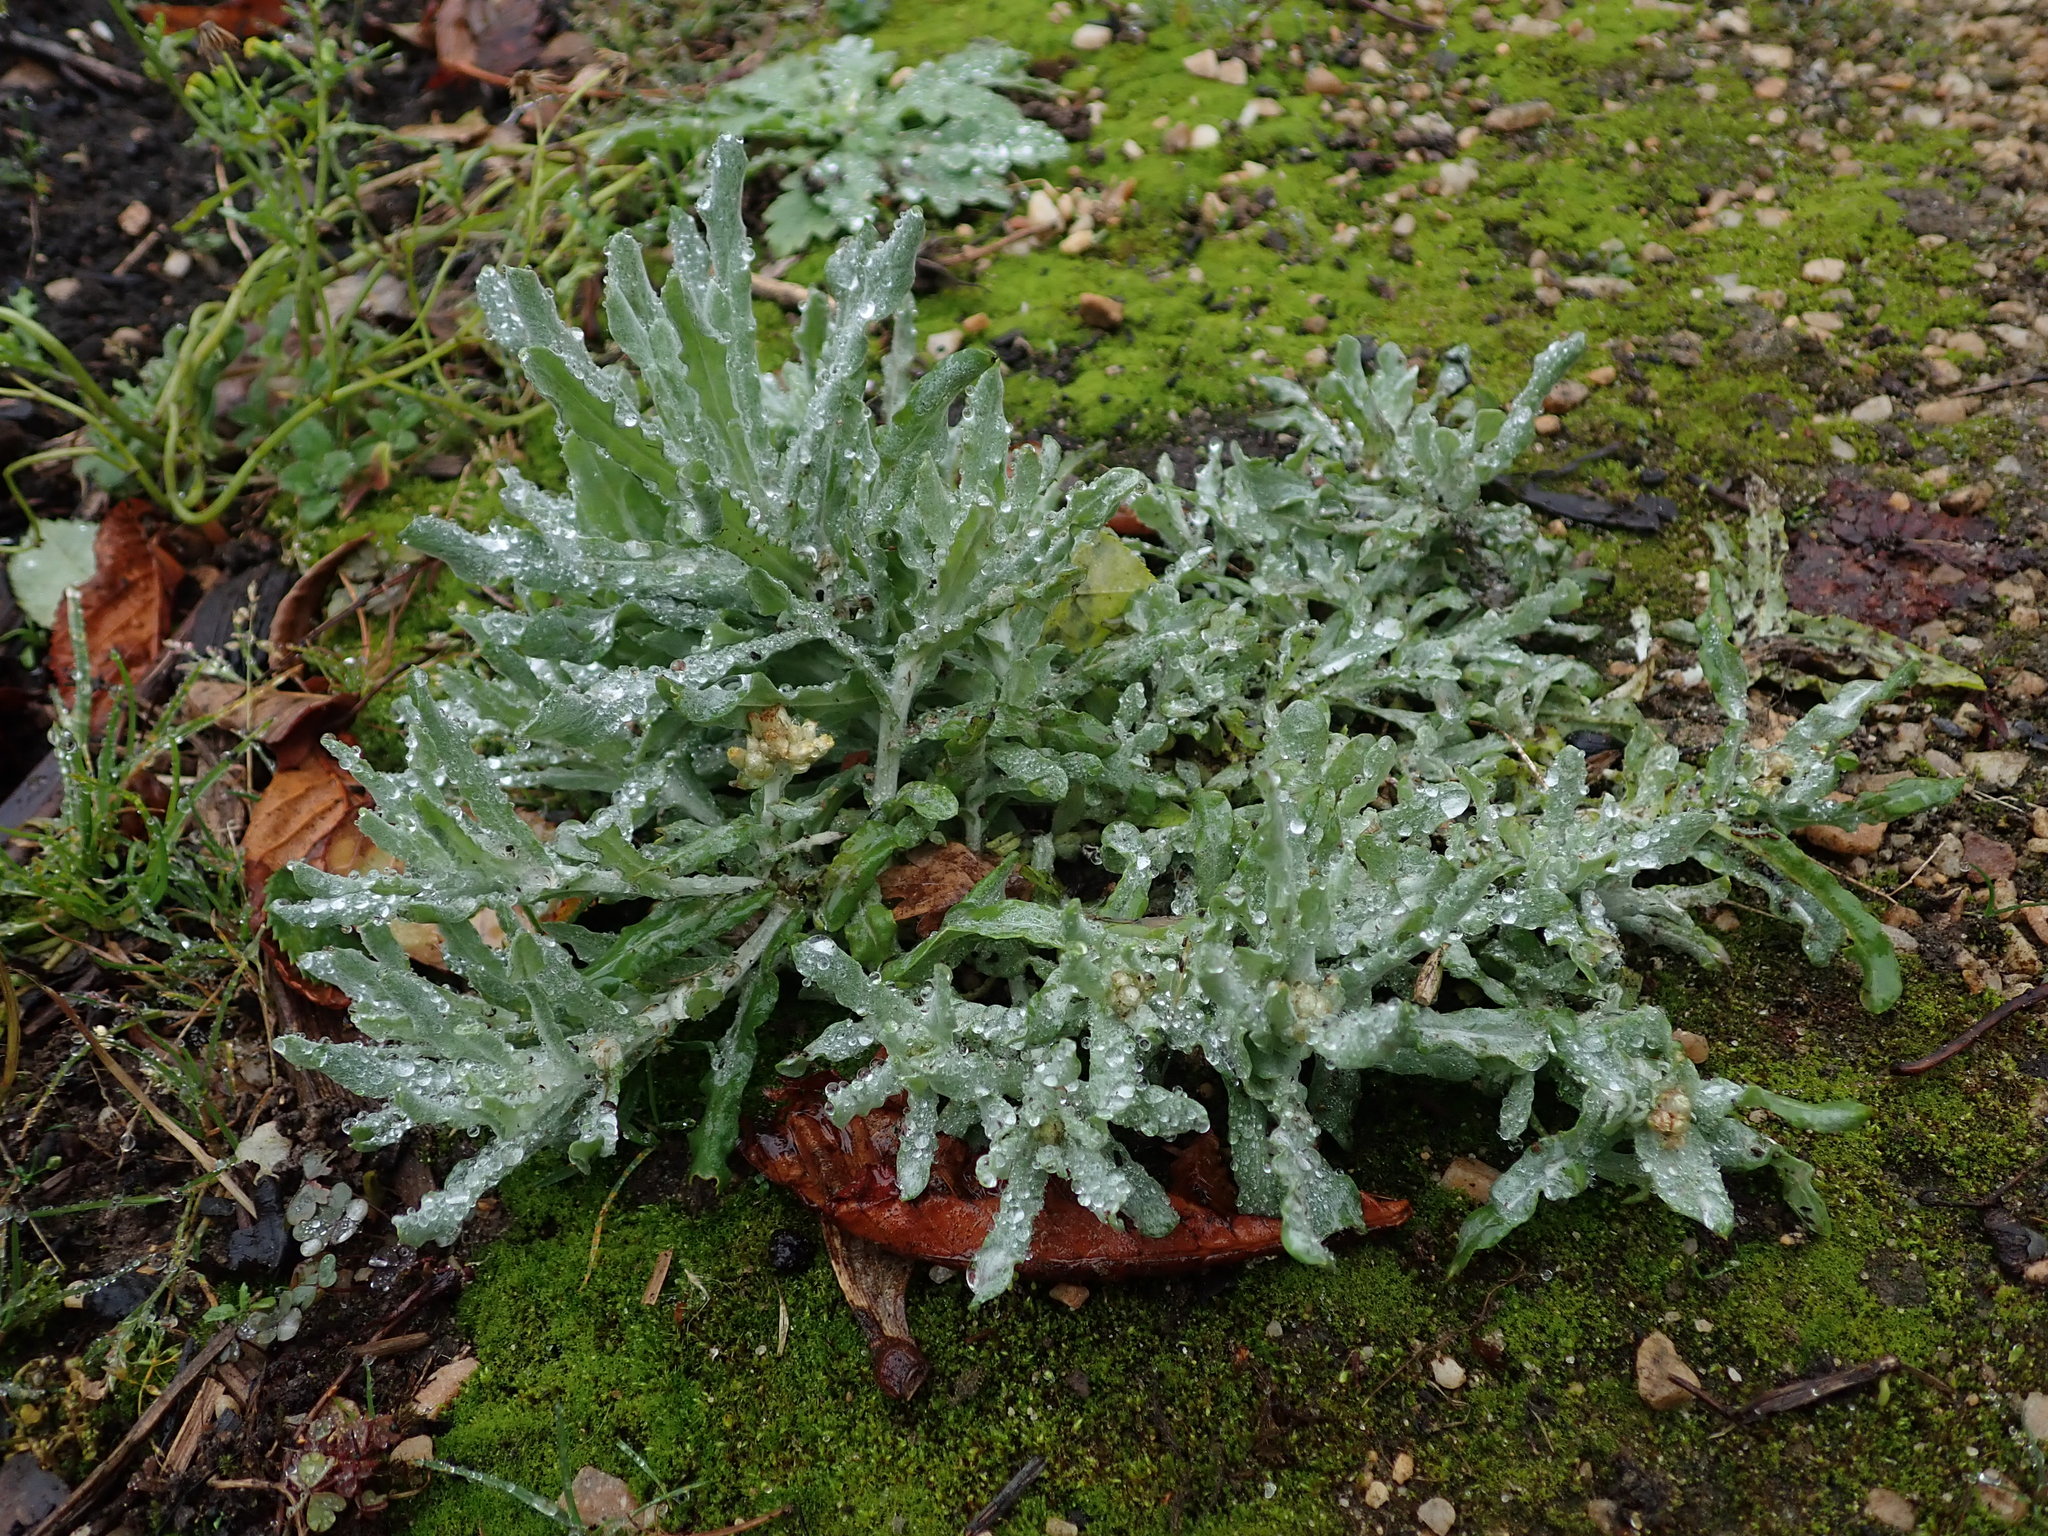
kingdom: Plantae
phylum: Tracheophyta
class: Magnoliopsida
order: Asterales
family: Asteraceae
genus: Helichrysum
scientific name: Helichrysum luteoalbum
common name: Daisy
